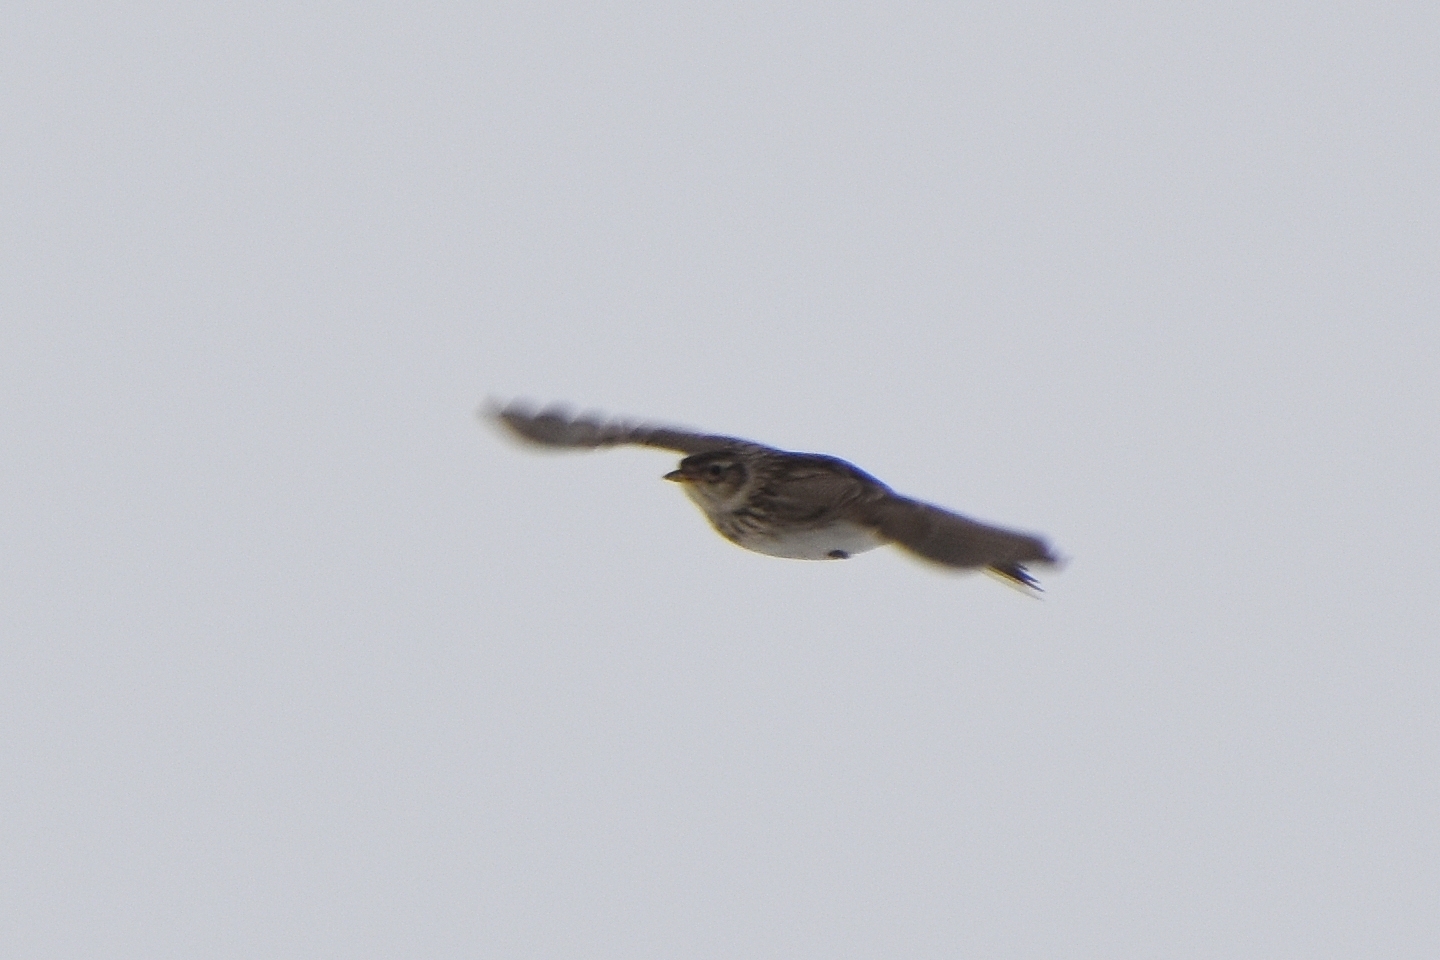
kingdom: Animalia
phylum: Chordata
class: Aves
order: Passeriformes
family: Alaudidae
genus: Alauda
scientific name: Alauda arvensis
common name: Eurasian skylark
